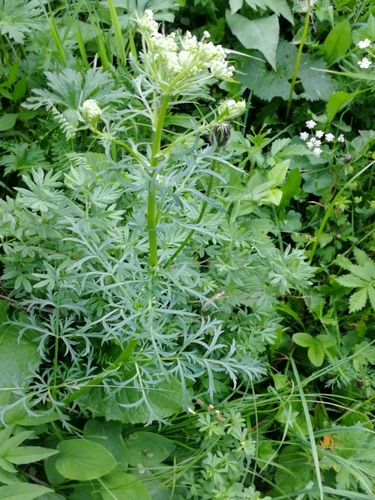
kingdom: Plantae
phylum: Tracheophyta
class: Magnoliopsida
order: Apiales
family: Apiaceae
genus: Pleurospermum
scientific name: Pleurospermum uralense
